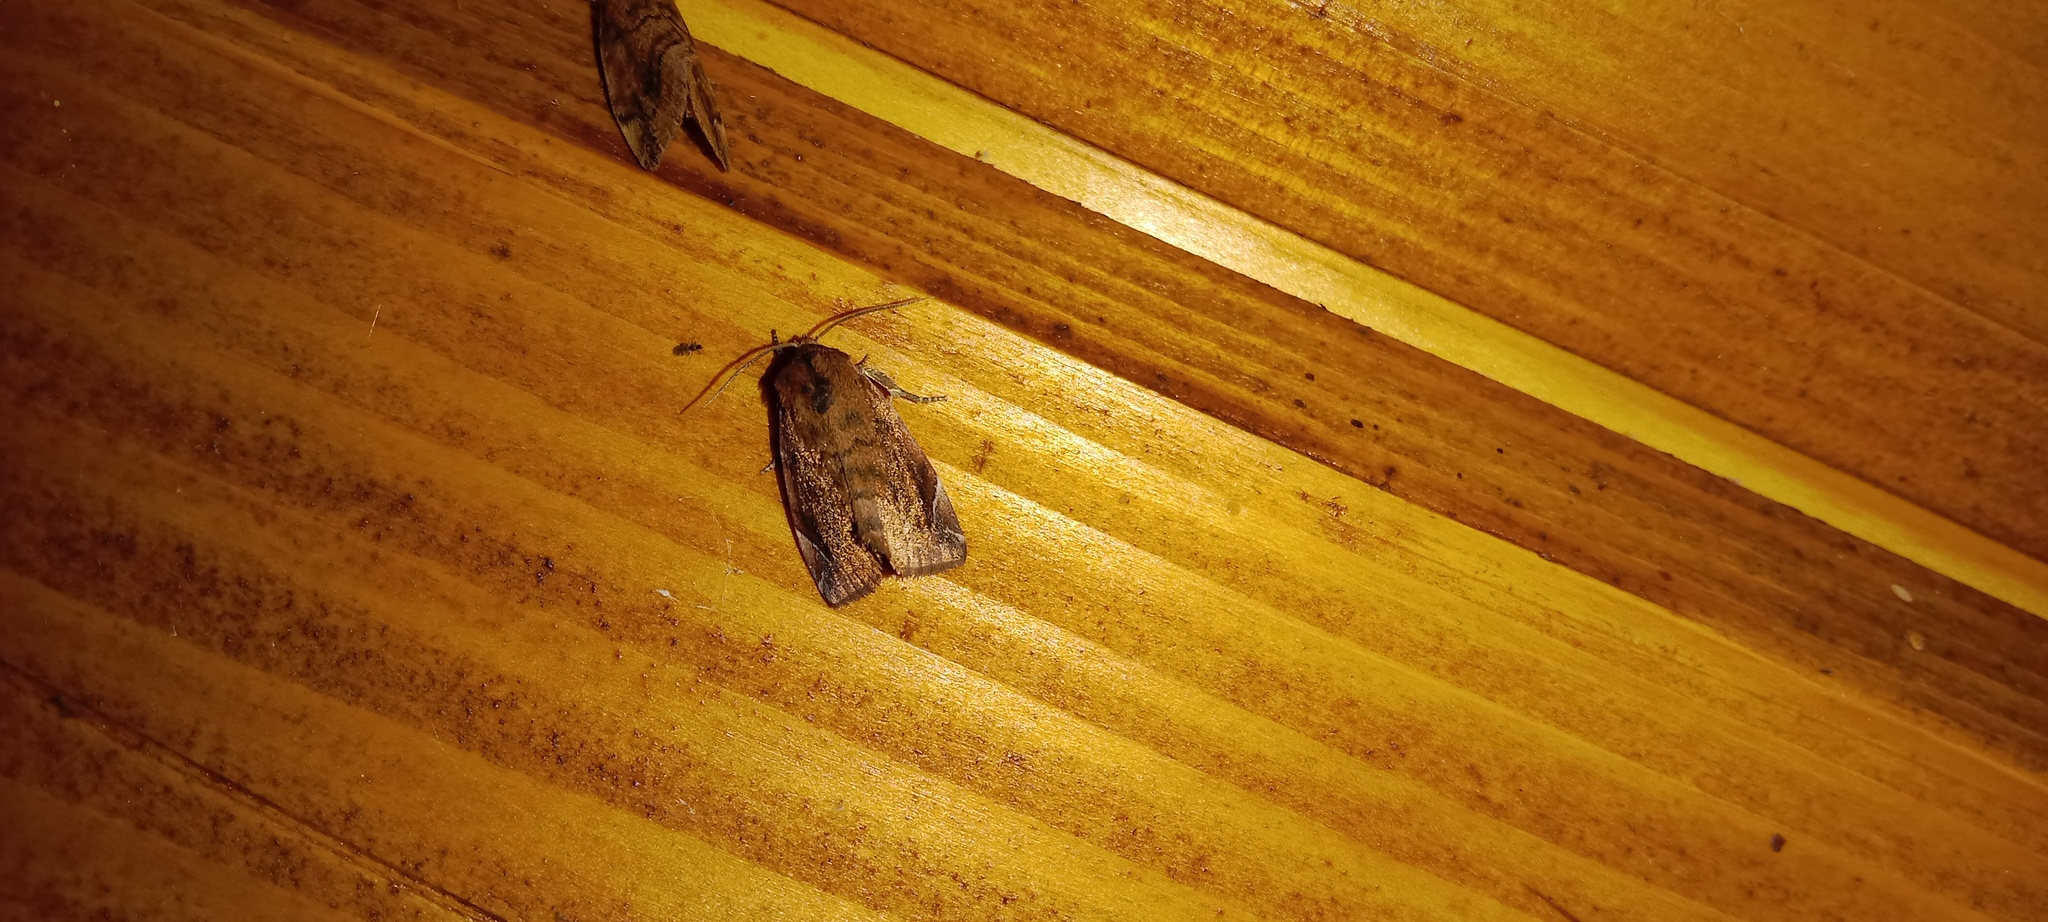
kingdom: Animalia
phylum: Arthropoda
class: Insecta
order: Lepidoptera
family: Noctuidae
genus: Cosmia
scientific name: Cosmia pyralina
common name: Lunar-spotted pinion
